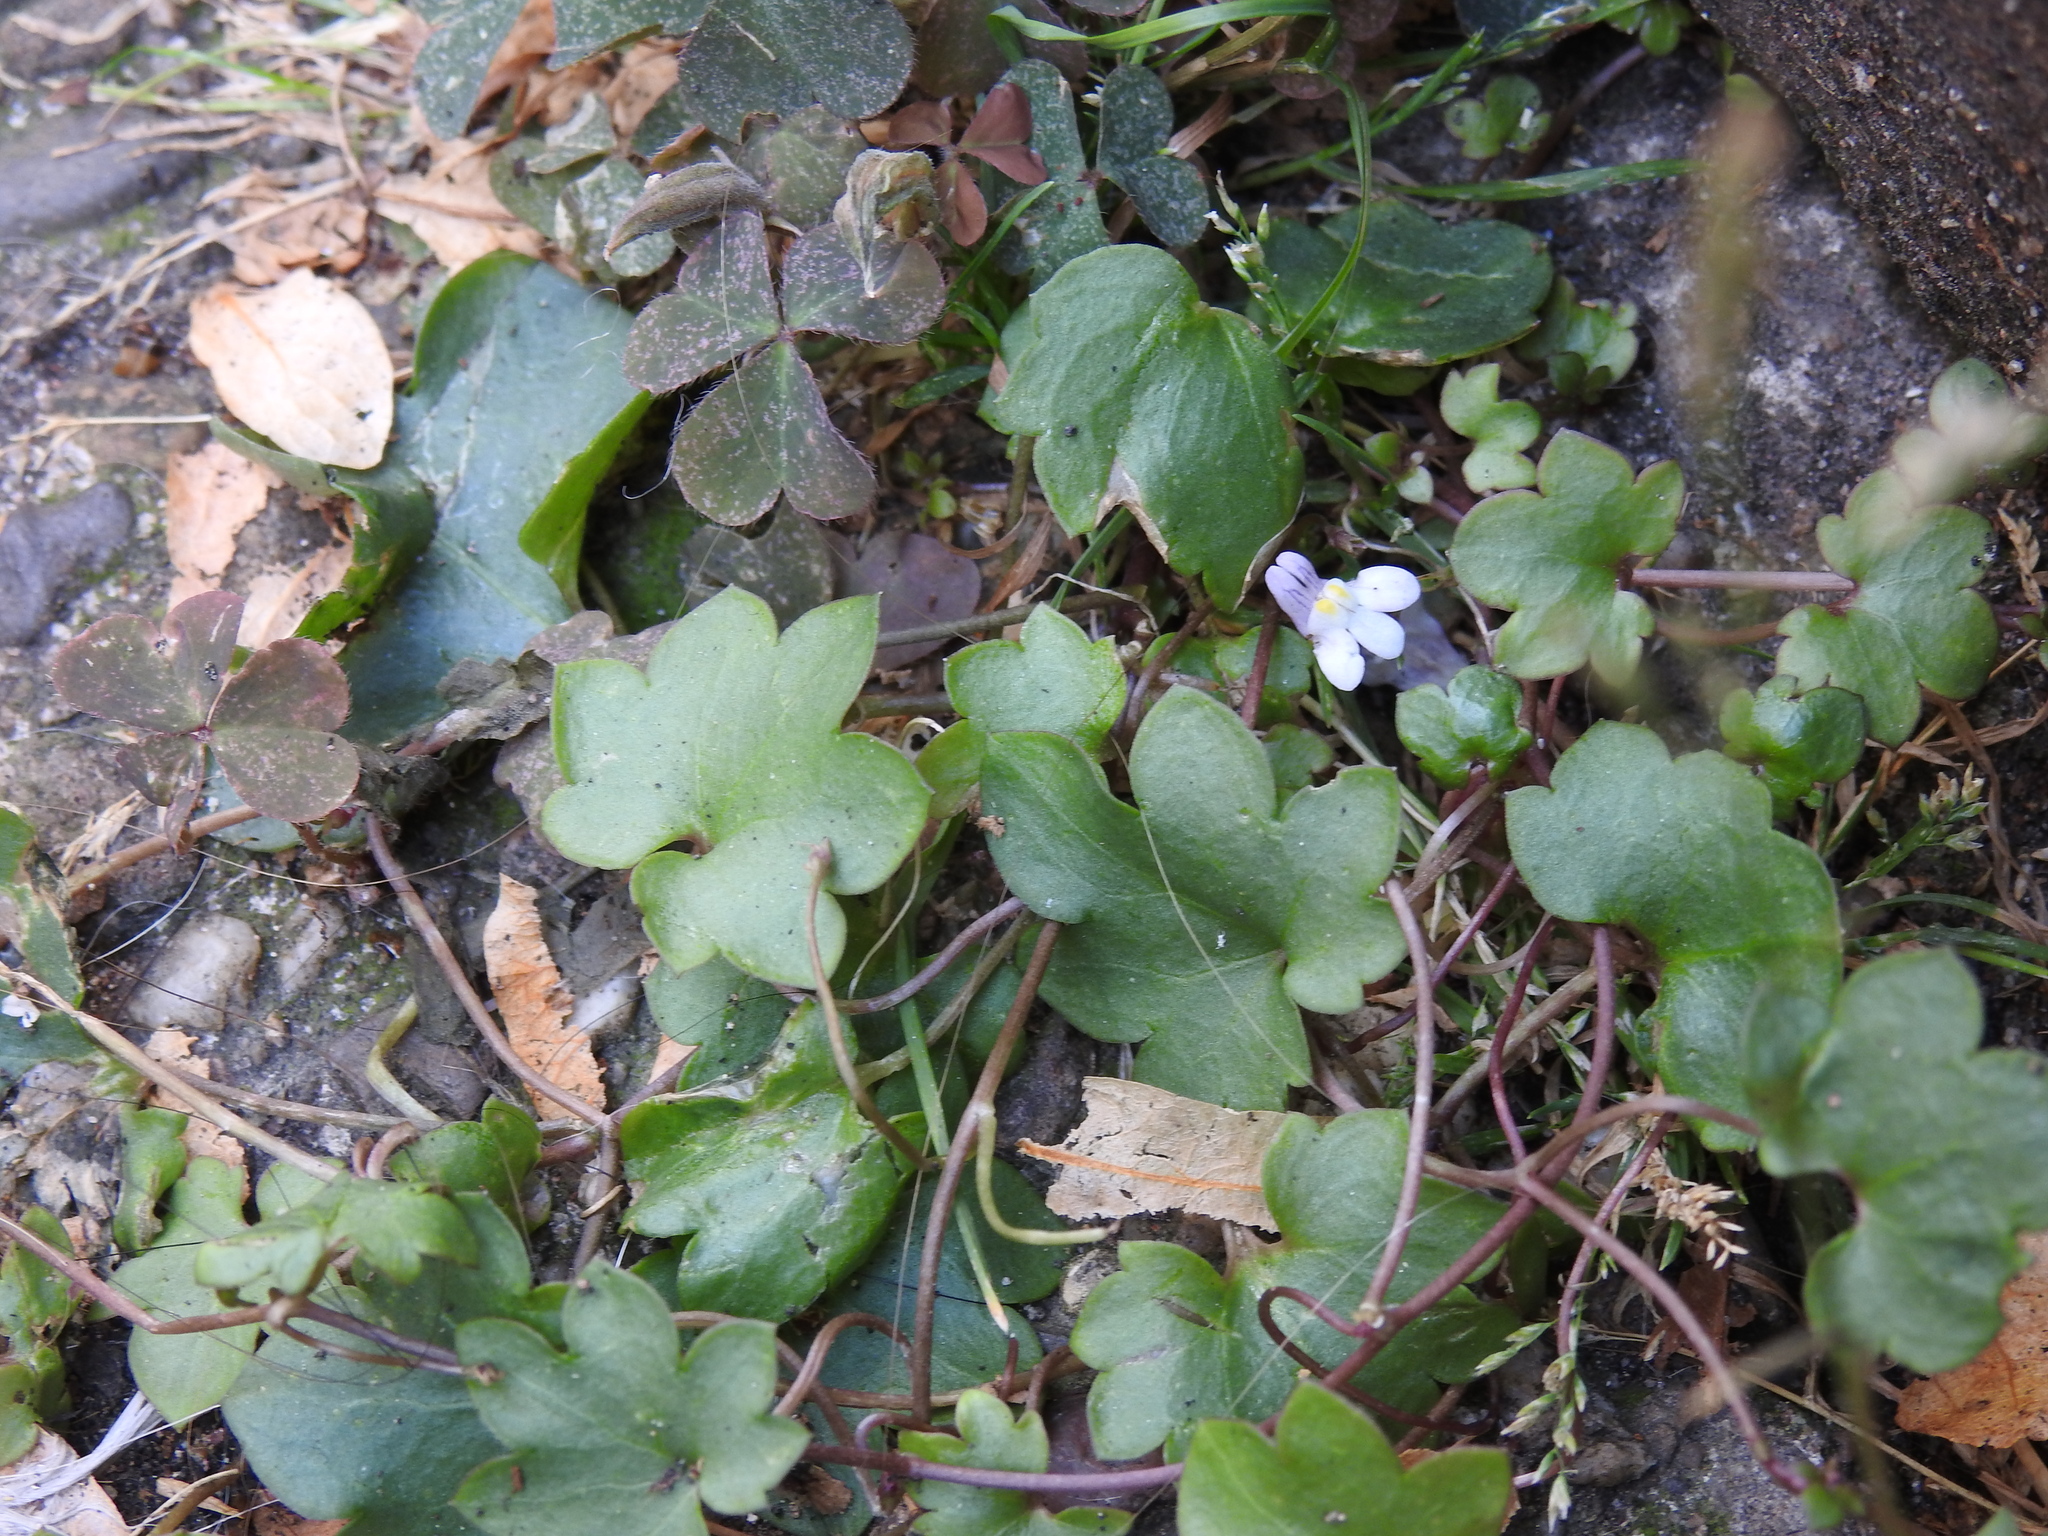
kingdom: Plantae
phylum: Tracheophyta
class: Magnoliopsida
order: Lamiales
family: Plantaginaceae
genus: Cymbalaria
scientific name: Cymbalaria muralis
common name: Ivy-leaved toadflax
